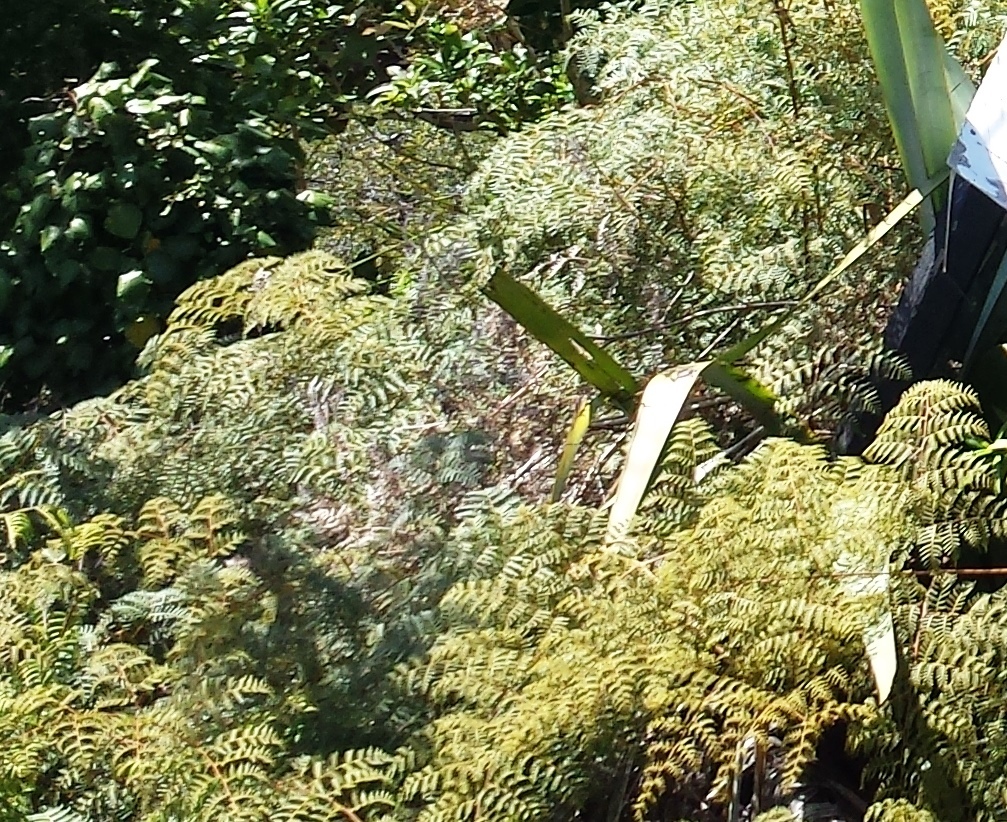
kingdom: Plantae
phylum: Tracheophyta
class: Polypodiopsida
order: Polypodiales
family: Dennstaedtiaceae
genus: Pteridium
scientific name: Pteridium esculentum
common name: Bracken fern
